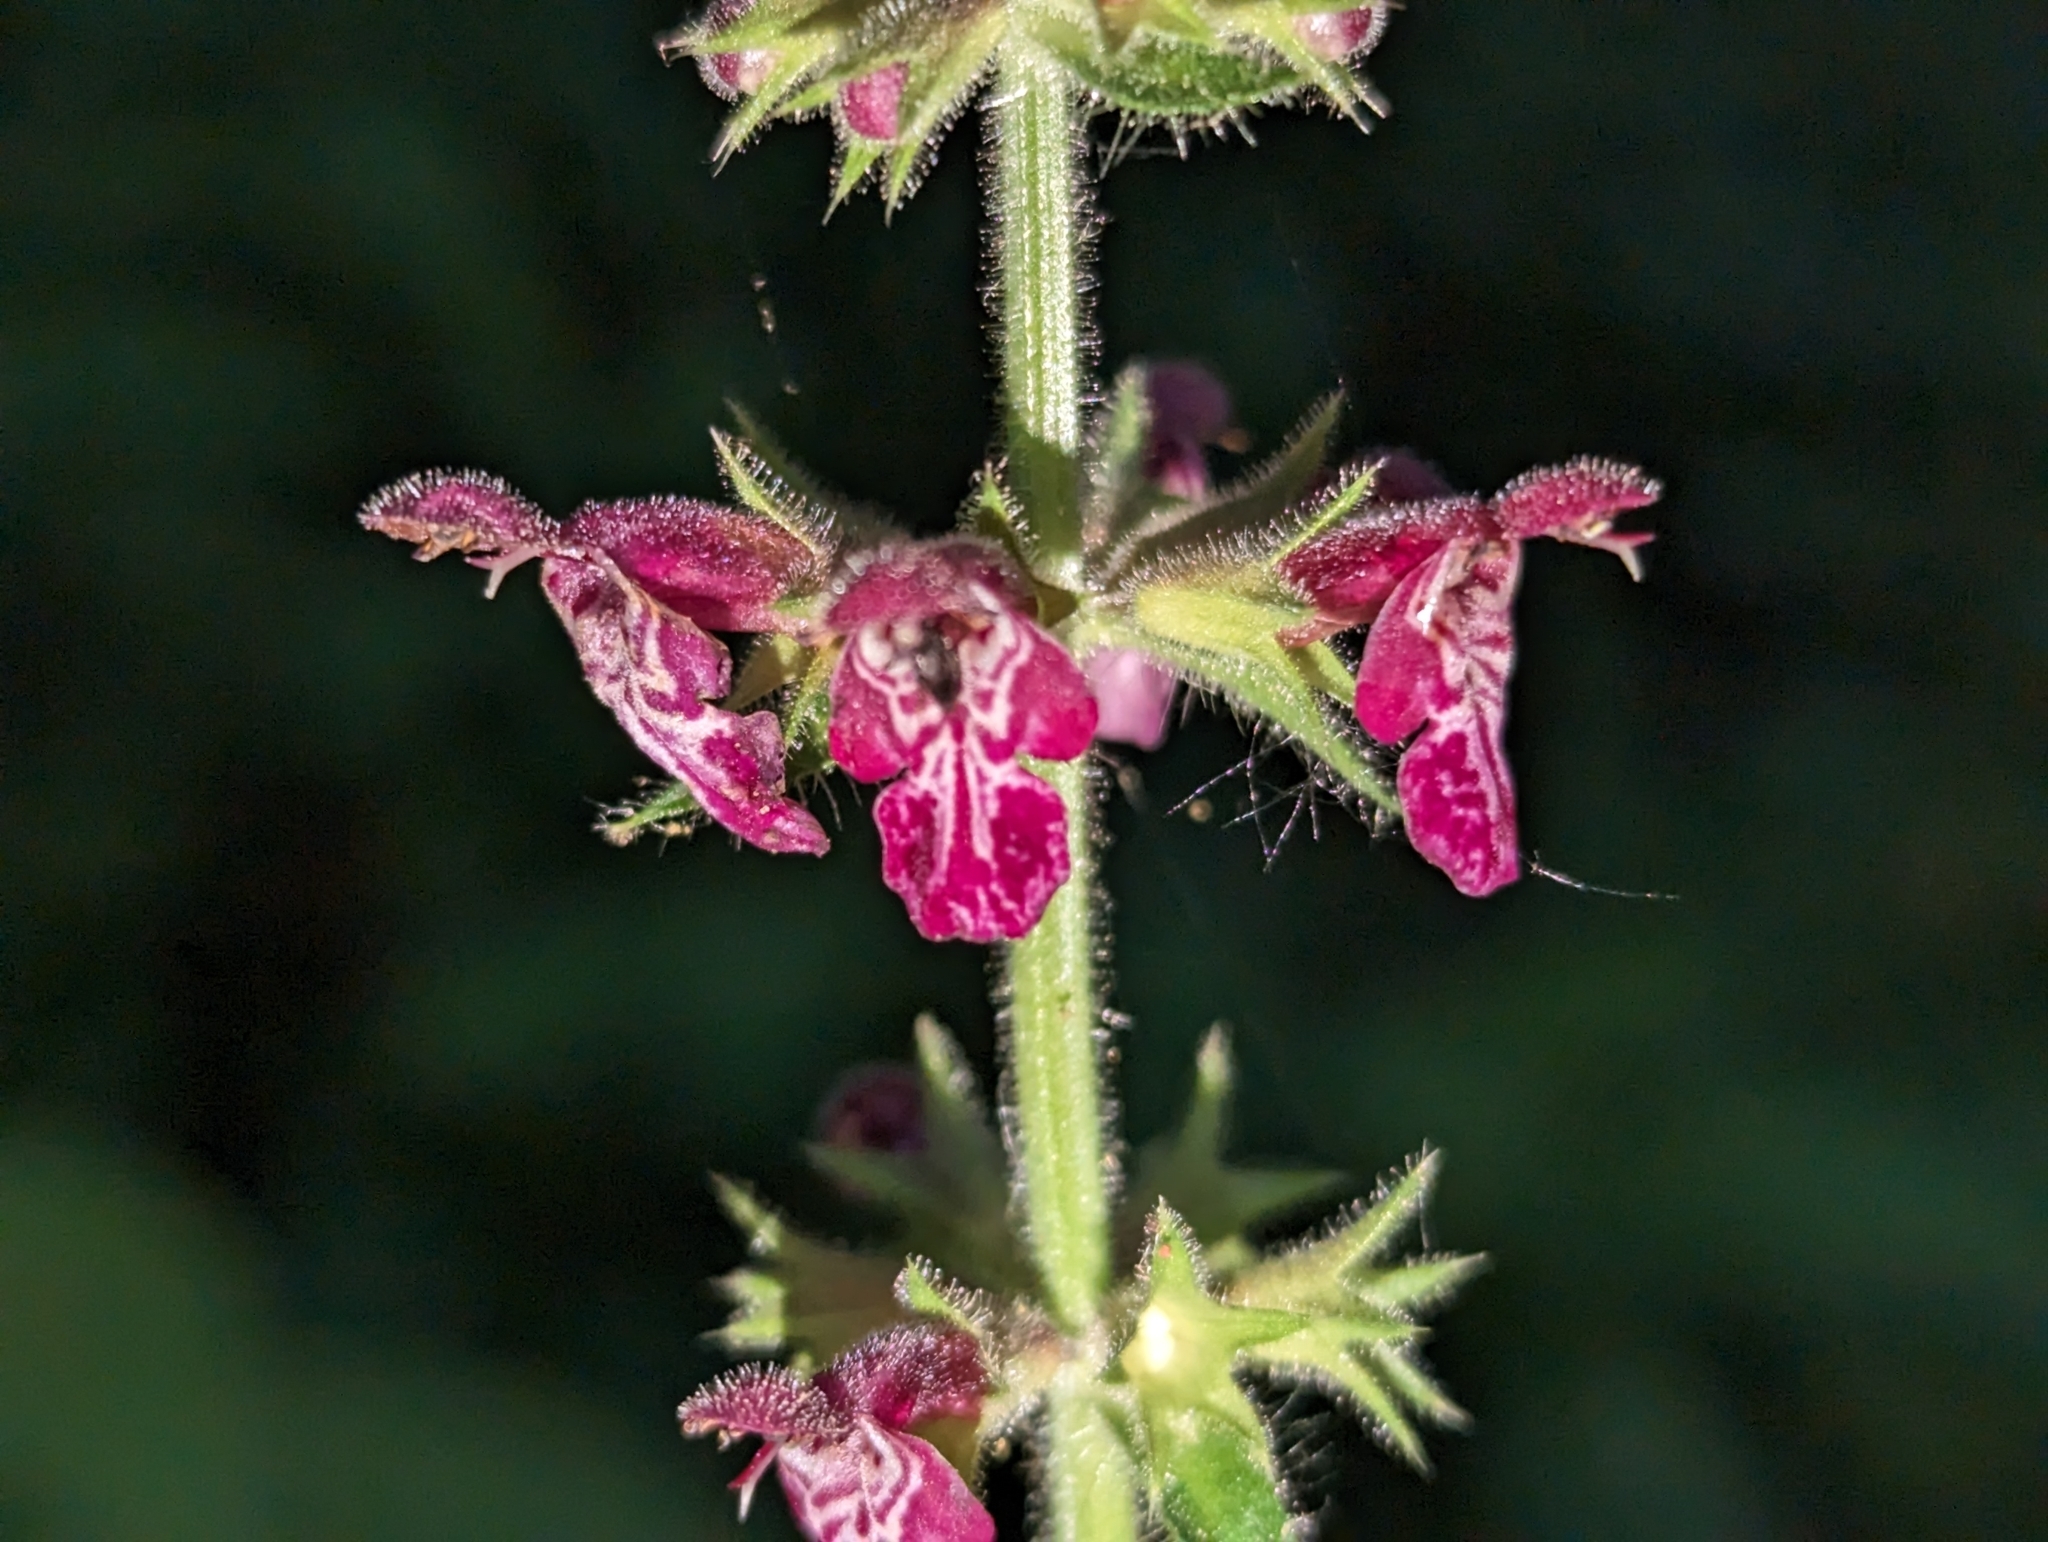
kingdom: Plantae
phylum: Tracheophyta
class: Magnoliopsida
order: Lamiales
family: Lamiaceae
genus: Stachys
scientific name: Stachys sylvatica
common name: Hedge woundwort
